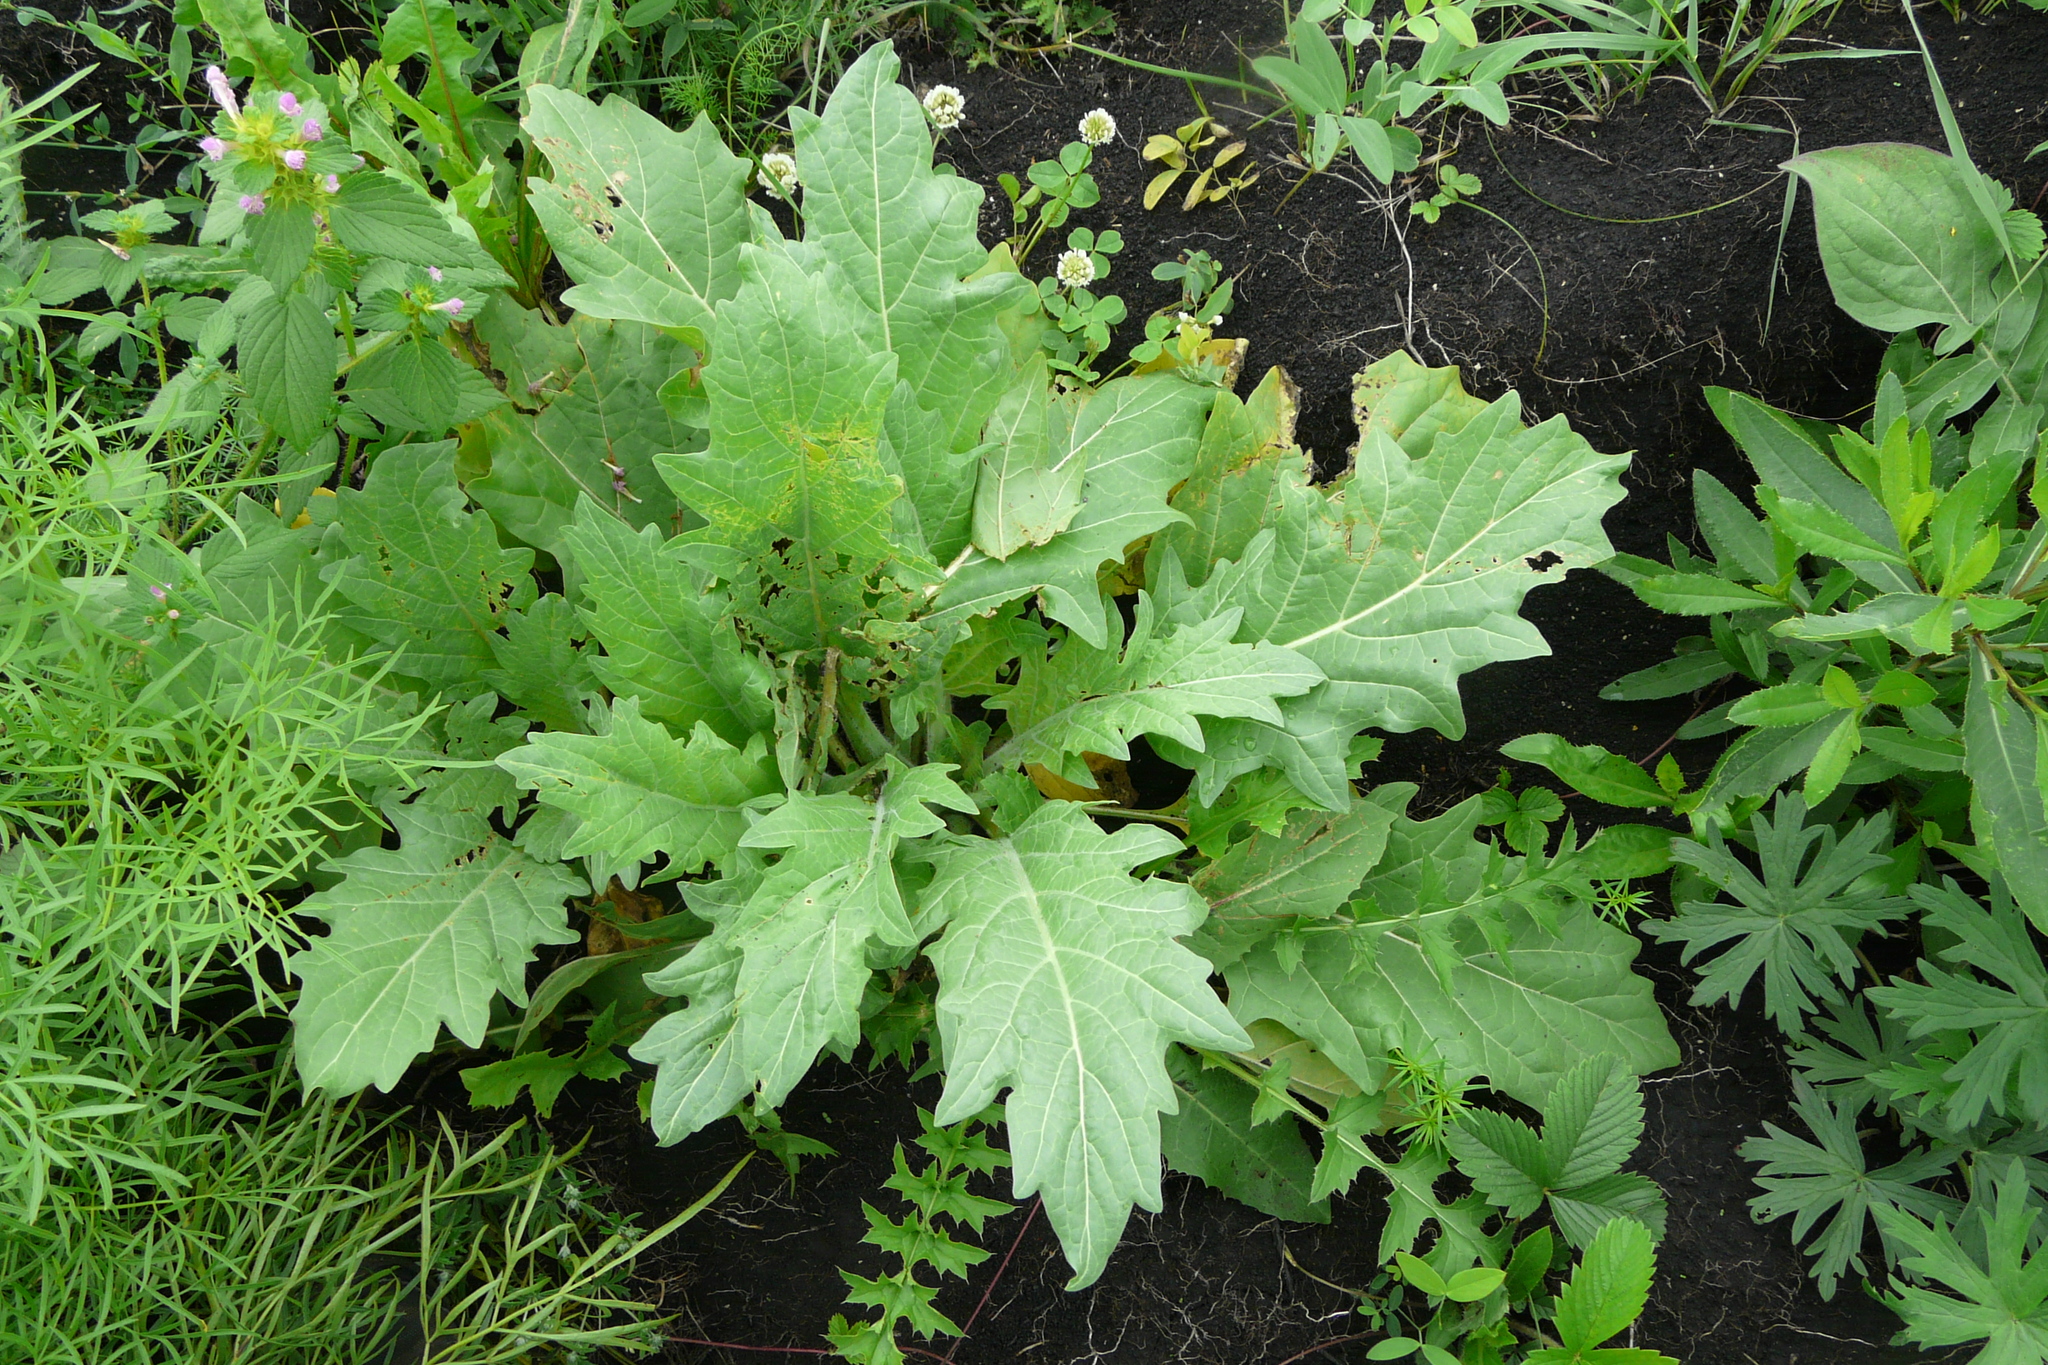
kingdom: Plantae
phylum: Tracheophyta
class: Magnoliopsida
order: Solanales
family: Solanaceae
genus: Hyoscyamus
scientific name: Hyoscyamus niger
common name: Henbane
